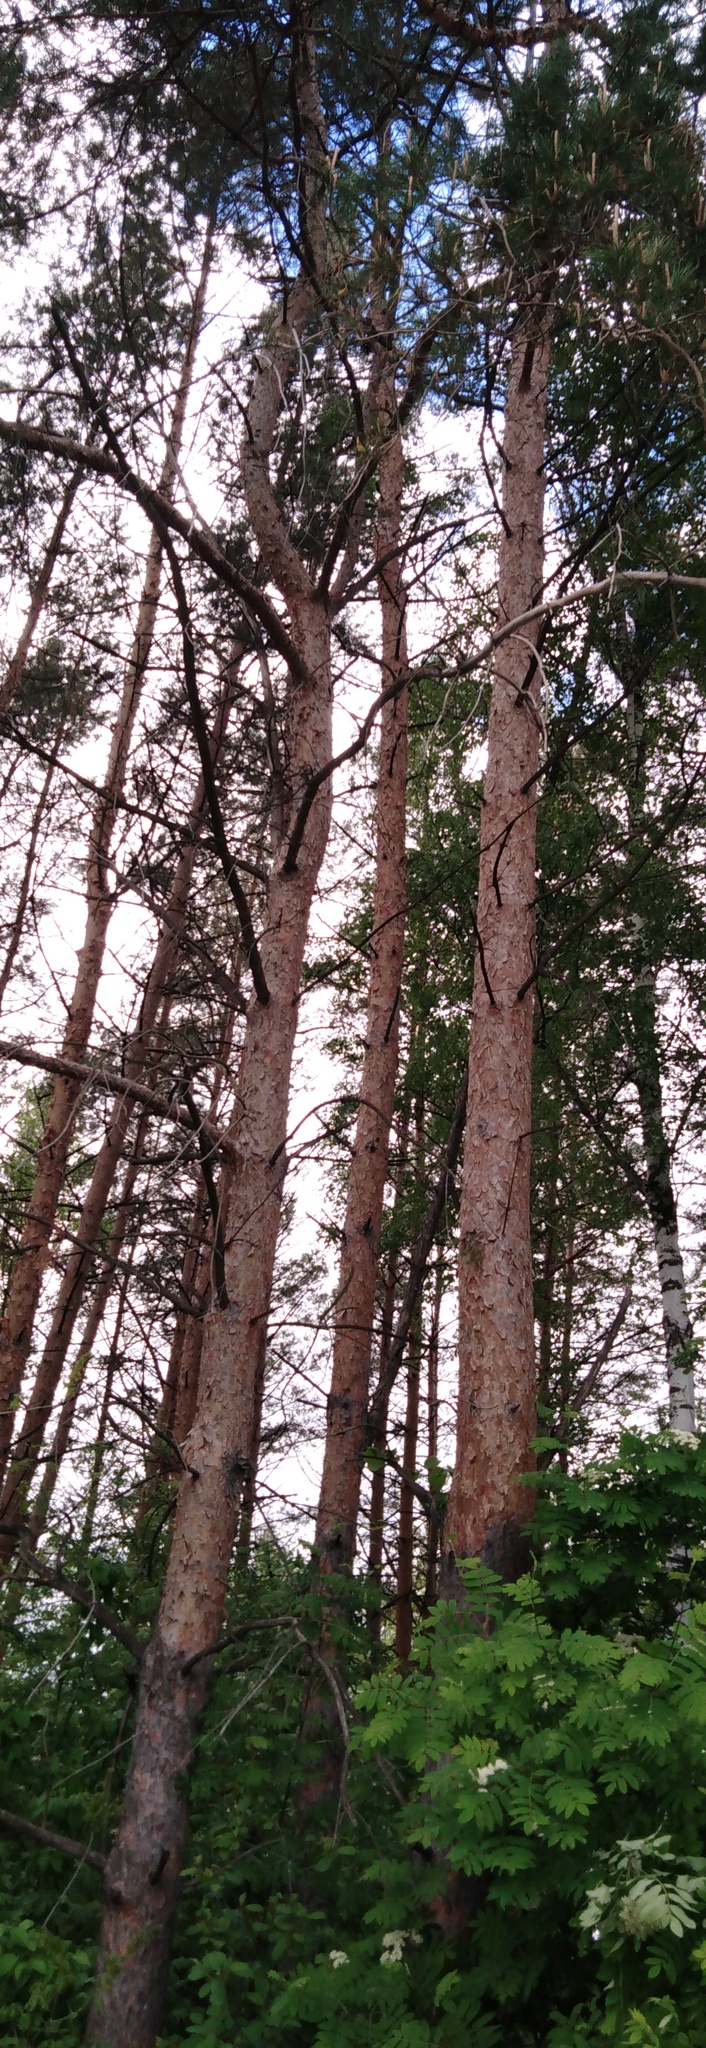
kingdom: Plantae
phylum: Tracheophyta
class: Pinopsida
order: Pinales
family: Pinaceae
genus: Pinus
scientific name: Pinus sylvestris
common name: Scots pine
